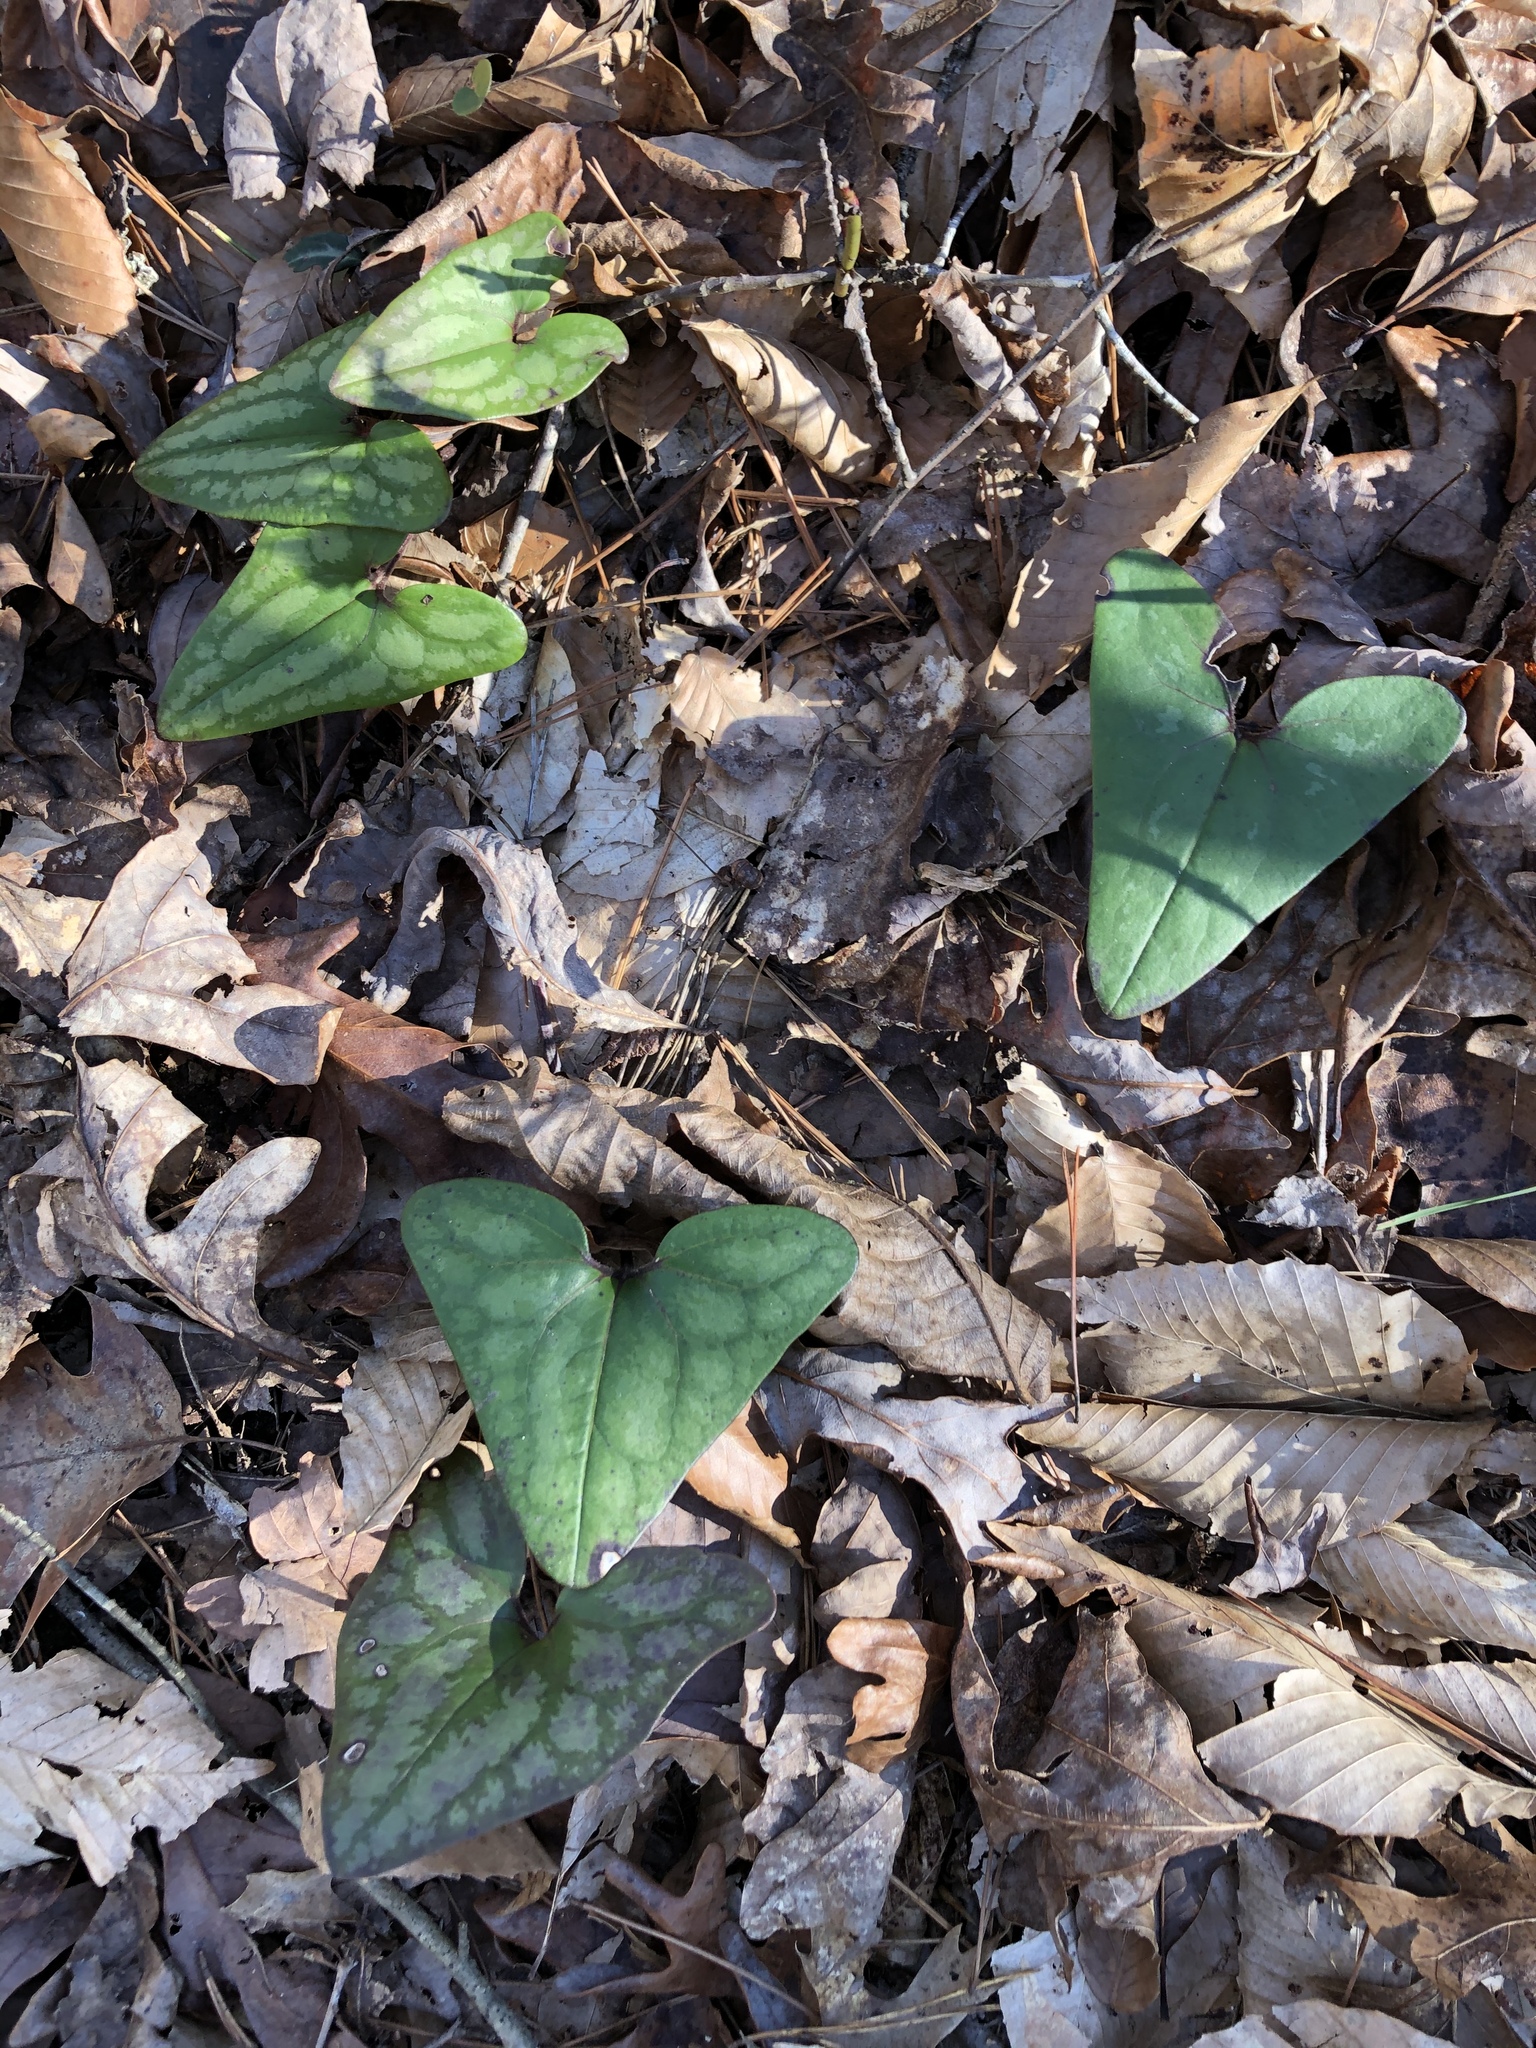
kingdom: Plantae
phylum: Tracheophyta
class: Magnoliopsida
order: Piperales
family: Aristolochiaceae
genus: Hexastylis
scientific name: Hexastylis arifolia
